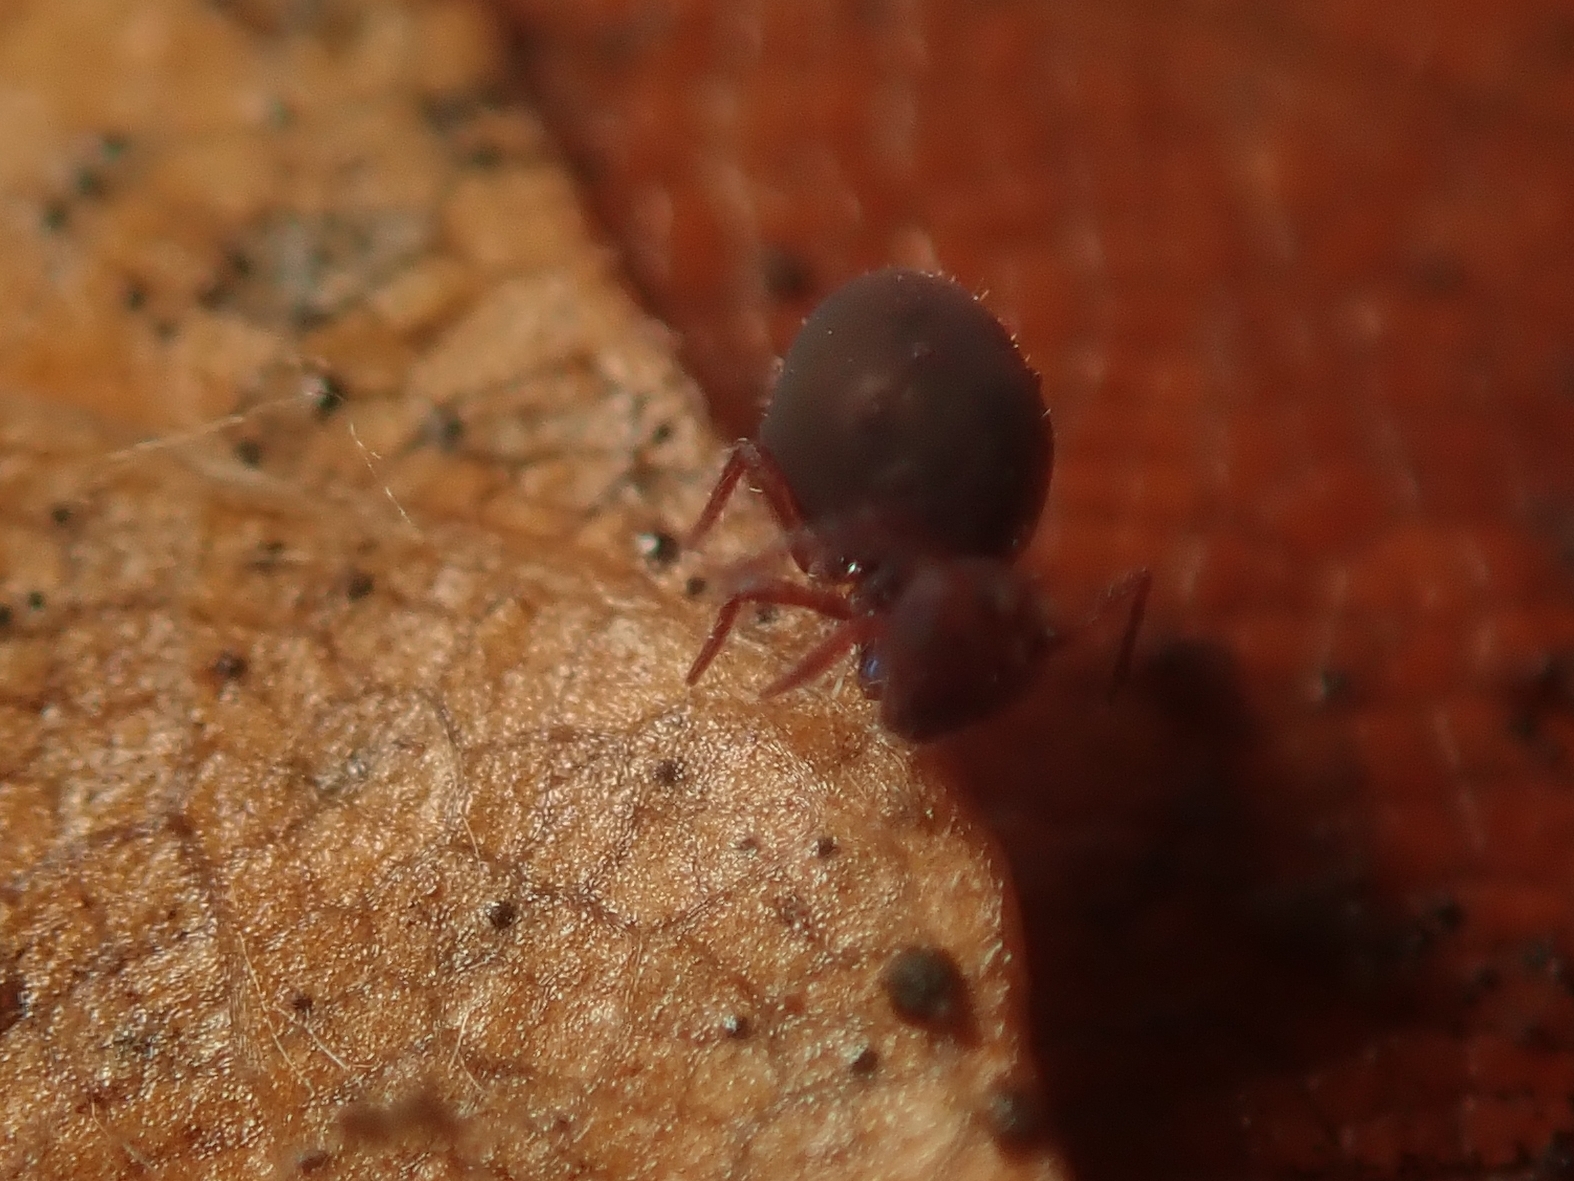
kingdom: Animalia
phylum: Arthropoda
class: Collembola
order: Symphypleona
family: Dicyrtomidae
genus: Dicyrtoma
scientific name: Dicyrtoma fusca
